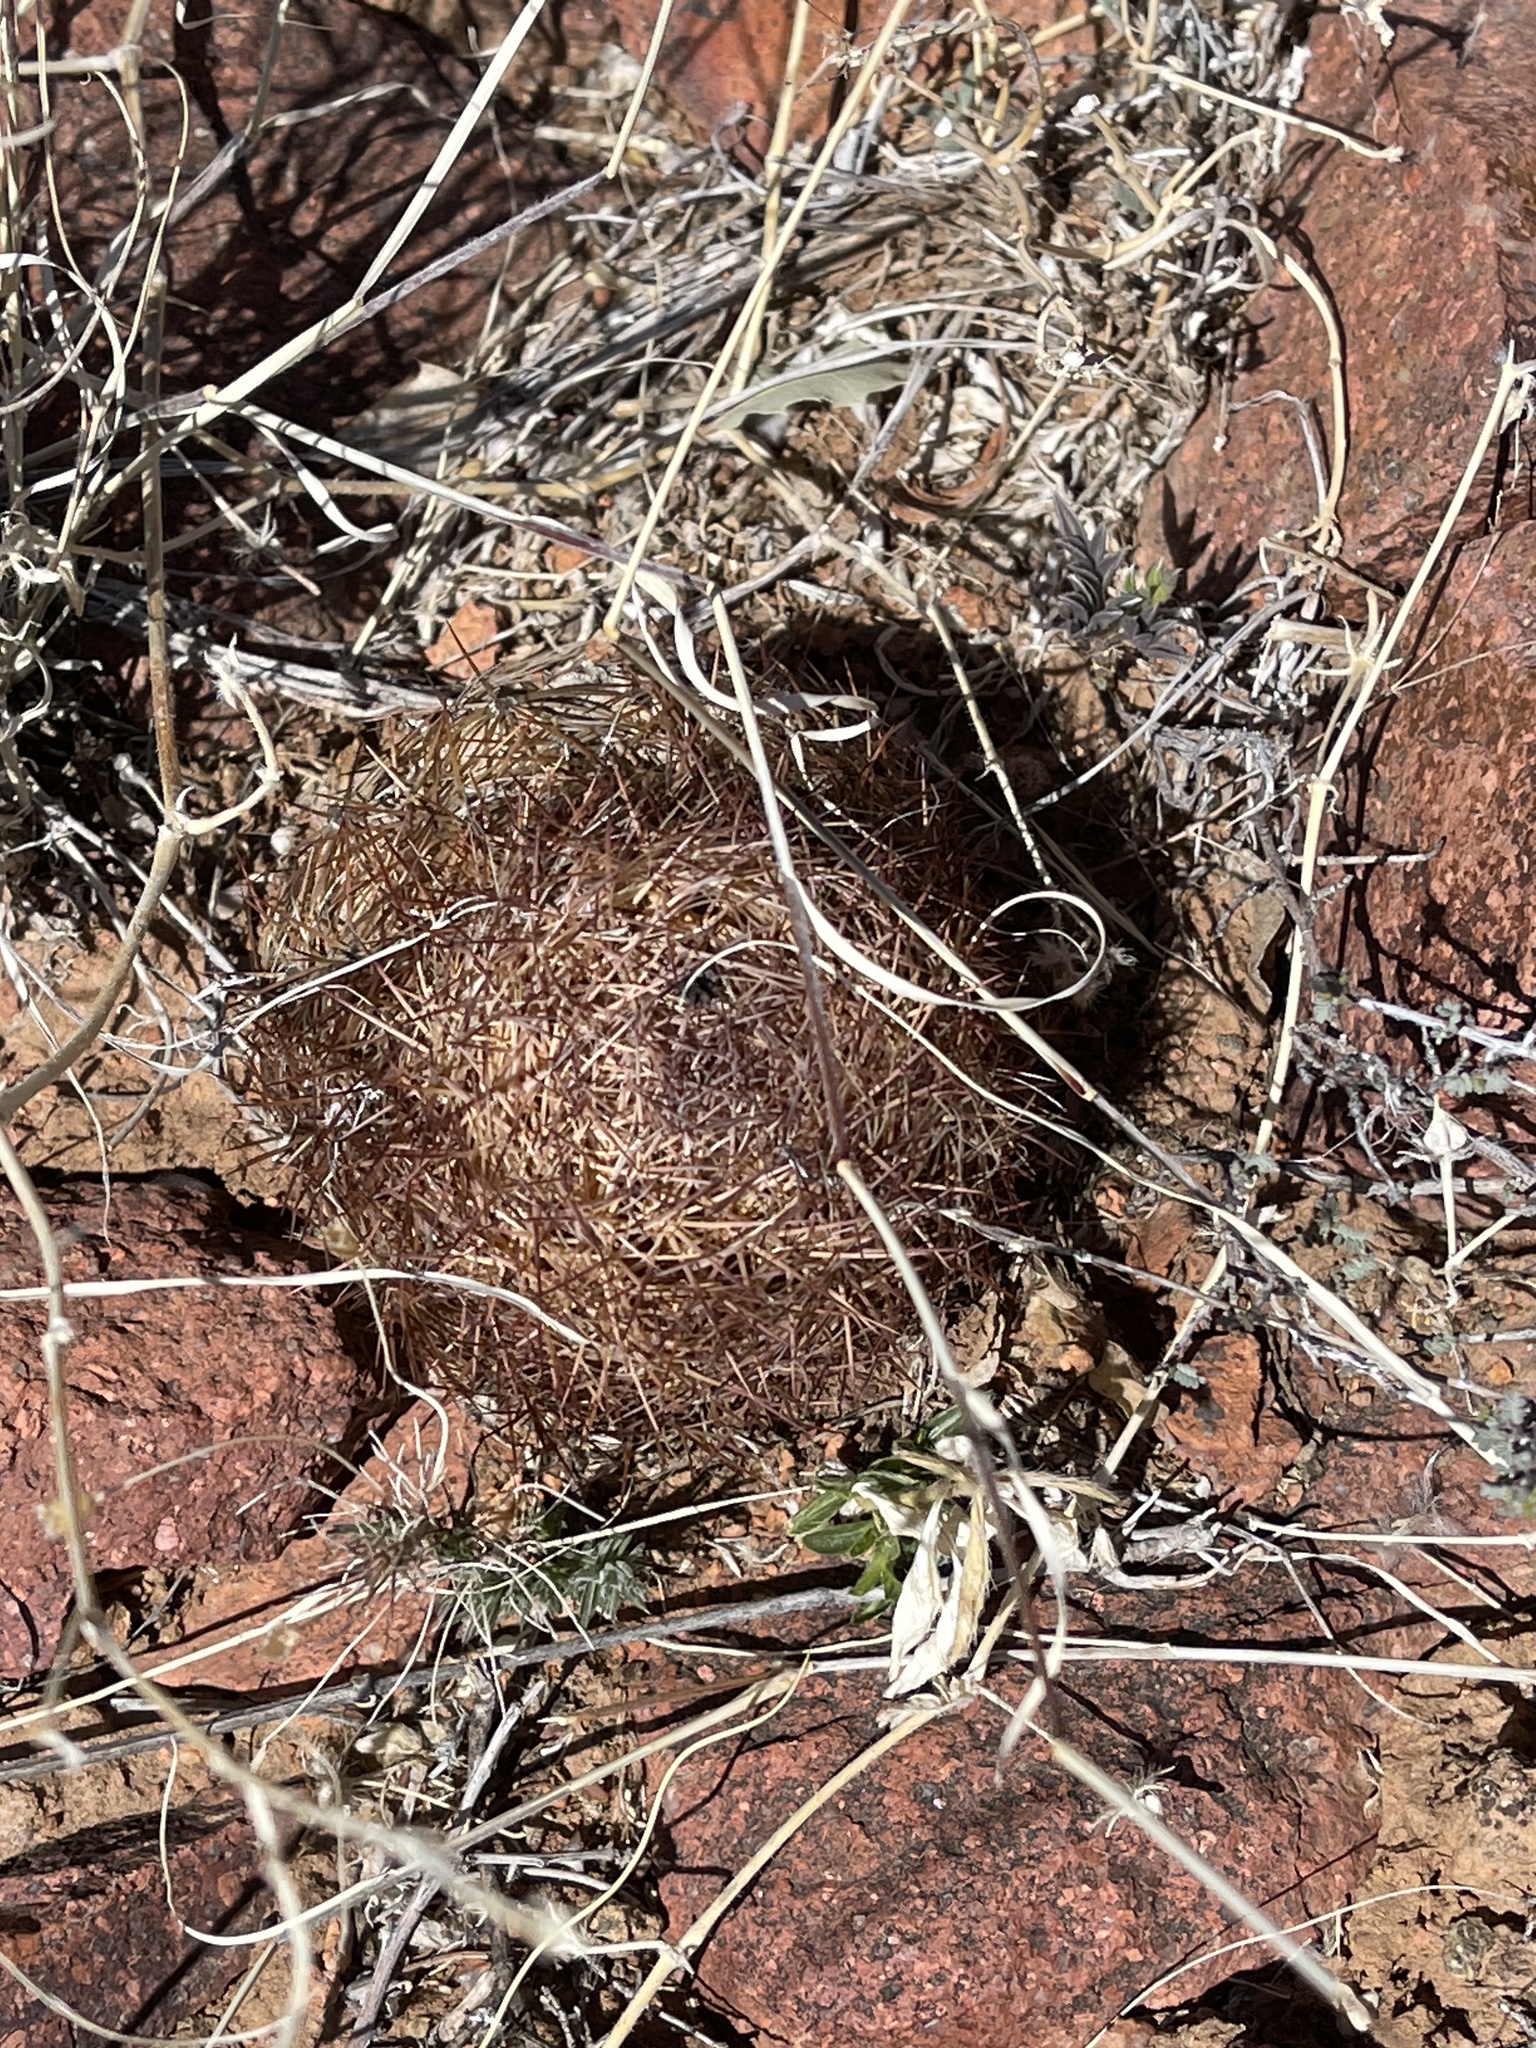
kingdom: Plantae
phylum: Tracheophyta
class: Magnoliopsida
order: Caryophyllales
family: Cactaceae
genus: Sclerocactus
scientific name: Sclerocactus intertextus
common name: White fish-hook cactus
